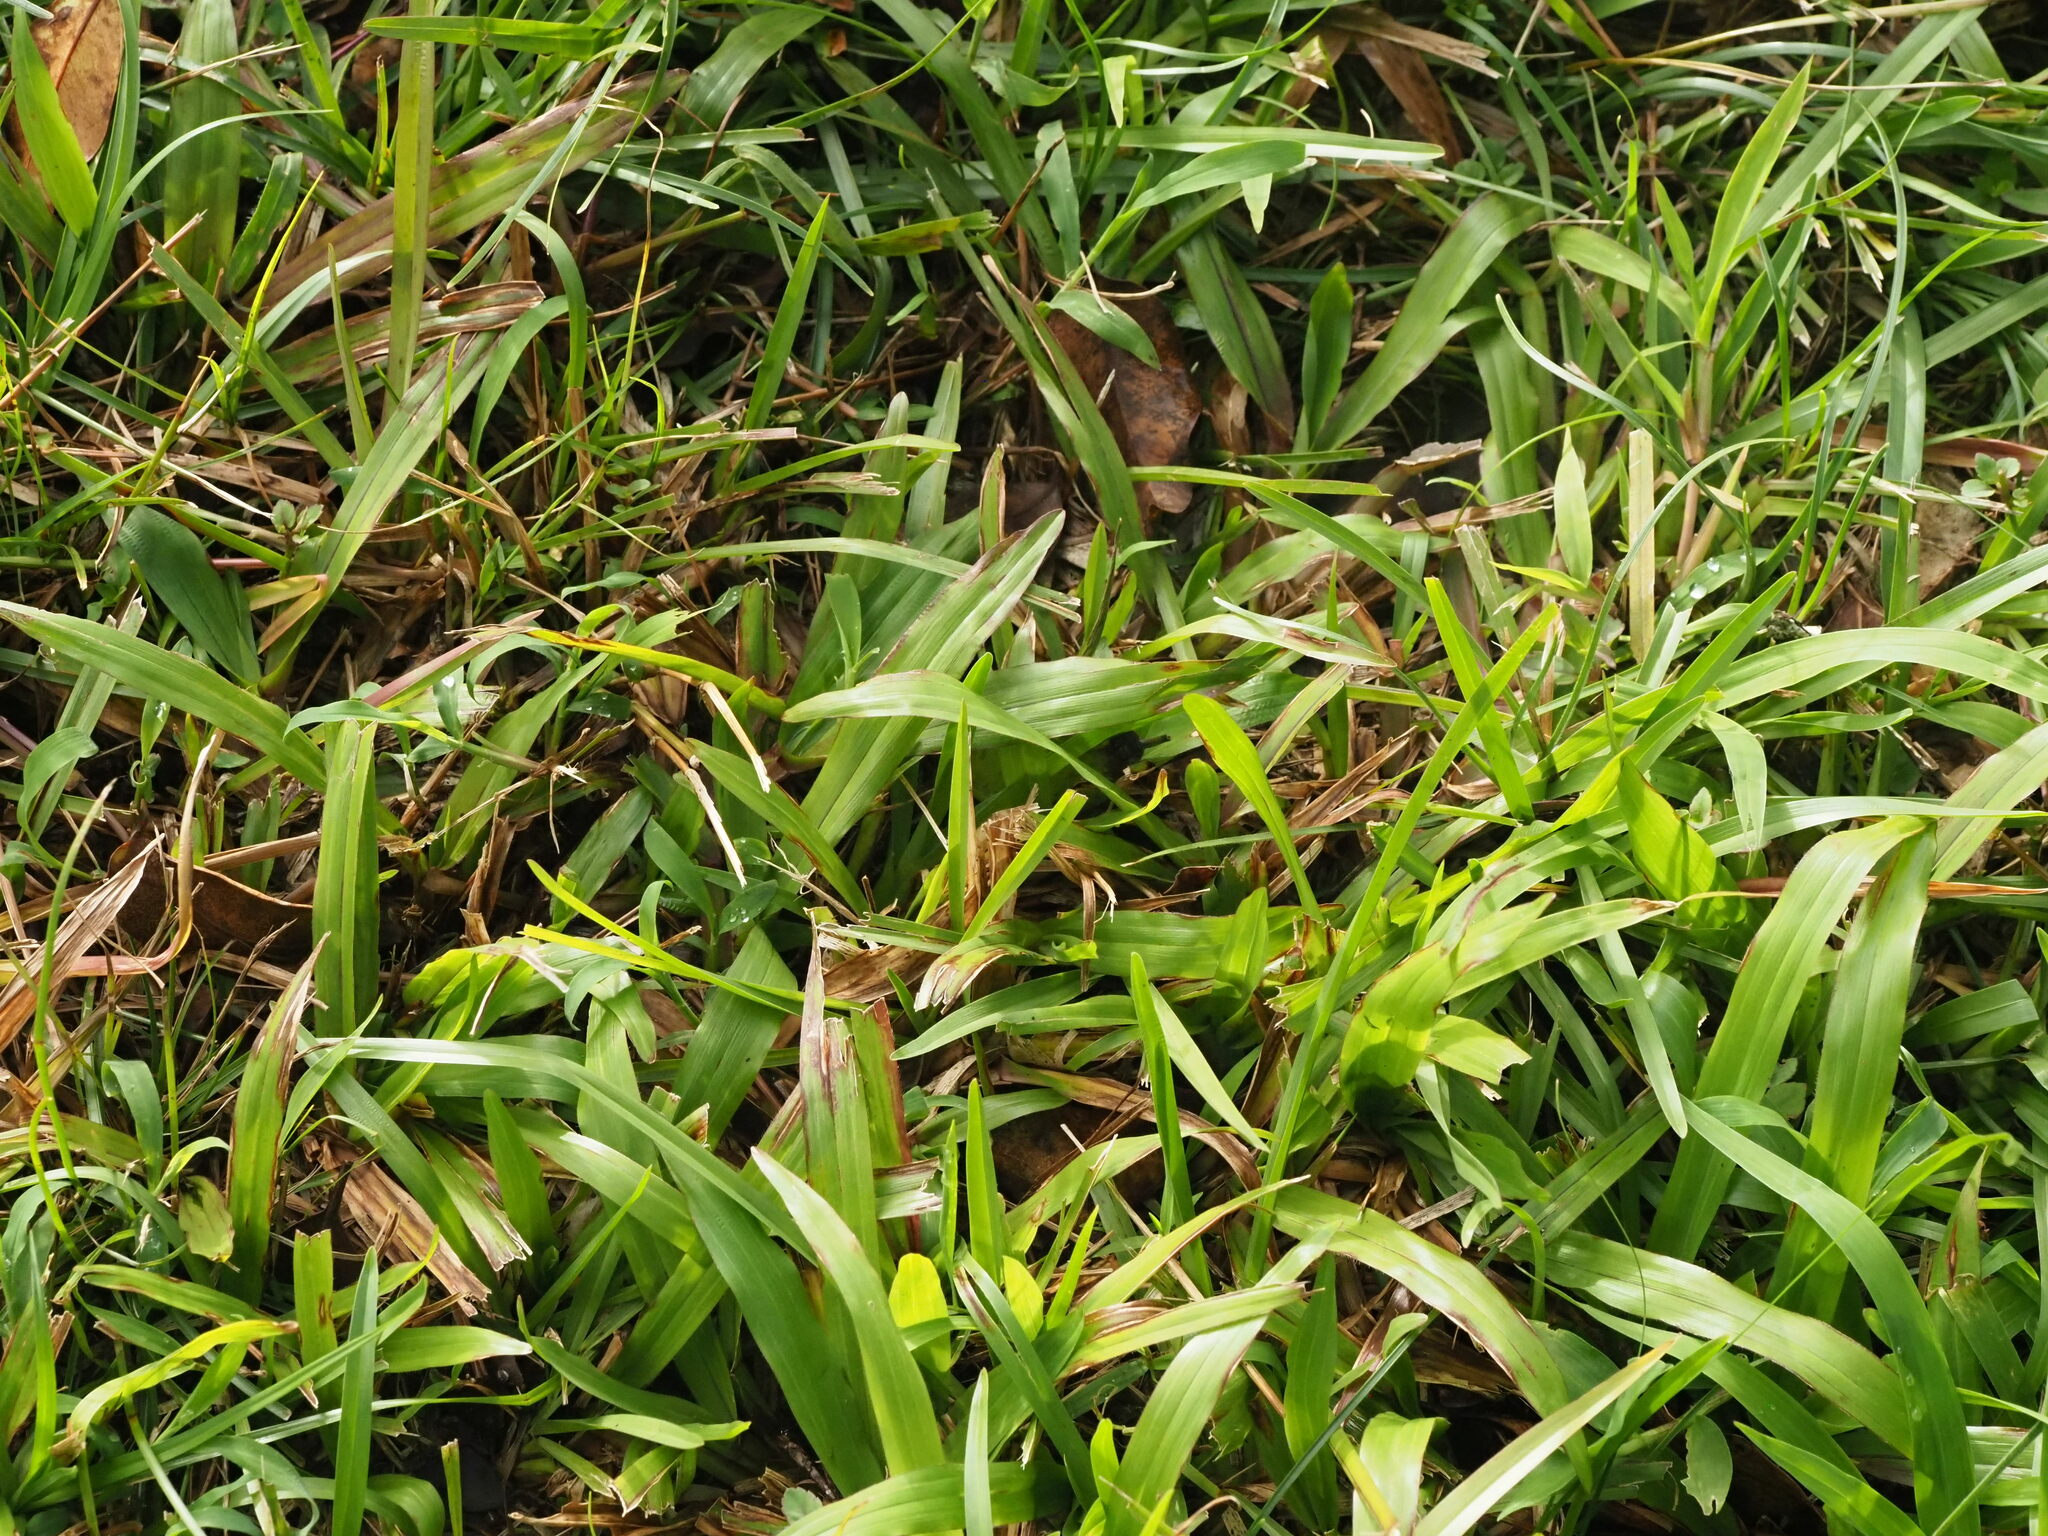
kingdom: Plantae
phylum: Tracheophyta
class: Liliopsida
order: Poales
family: Poaceae
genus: Axonopus
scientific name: Axonopus compressus
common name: American carpet grass
